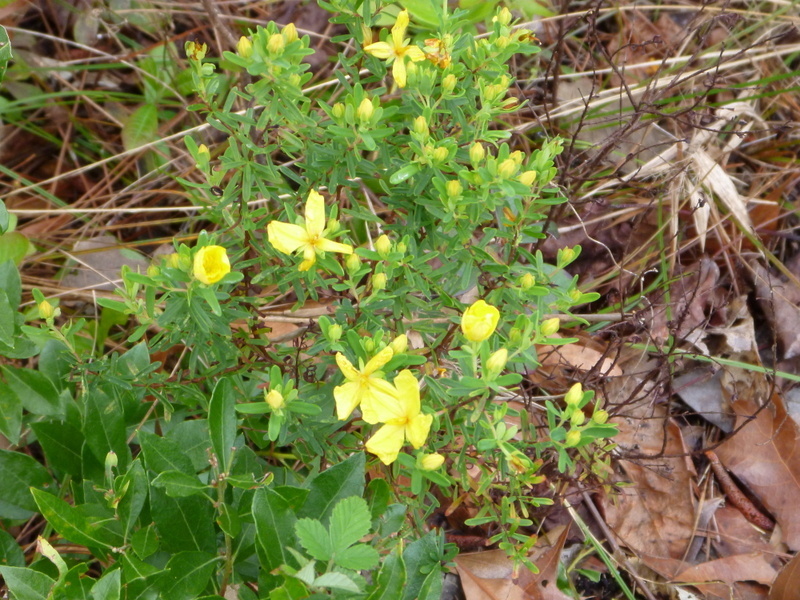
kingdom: Plantae
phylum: Tracheophyta
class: Magnoliopsida
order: Malpighiales
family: Hypericaceae
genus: Hypericum
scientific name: Hypericum microsepalum
